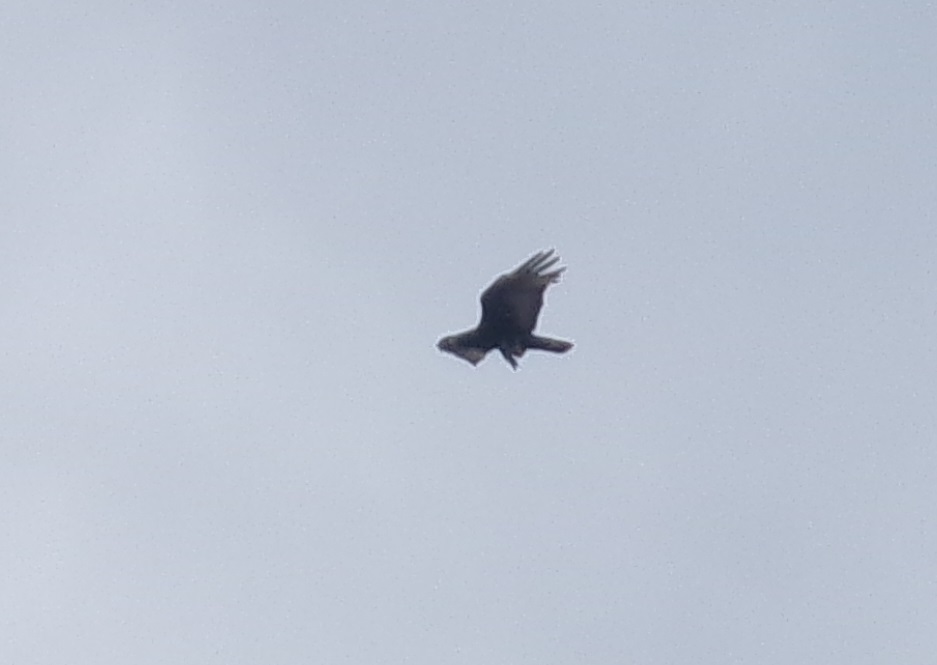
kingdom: Animalia
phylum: Chordata
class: Aves
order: Accipitriformes
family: Cathartidae
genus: Cathartes
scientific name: Cathartes aura
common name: Turkey vulture
